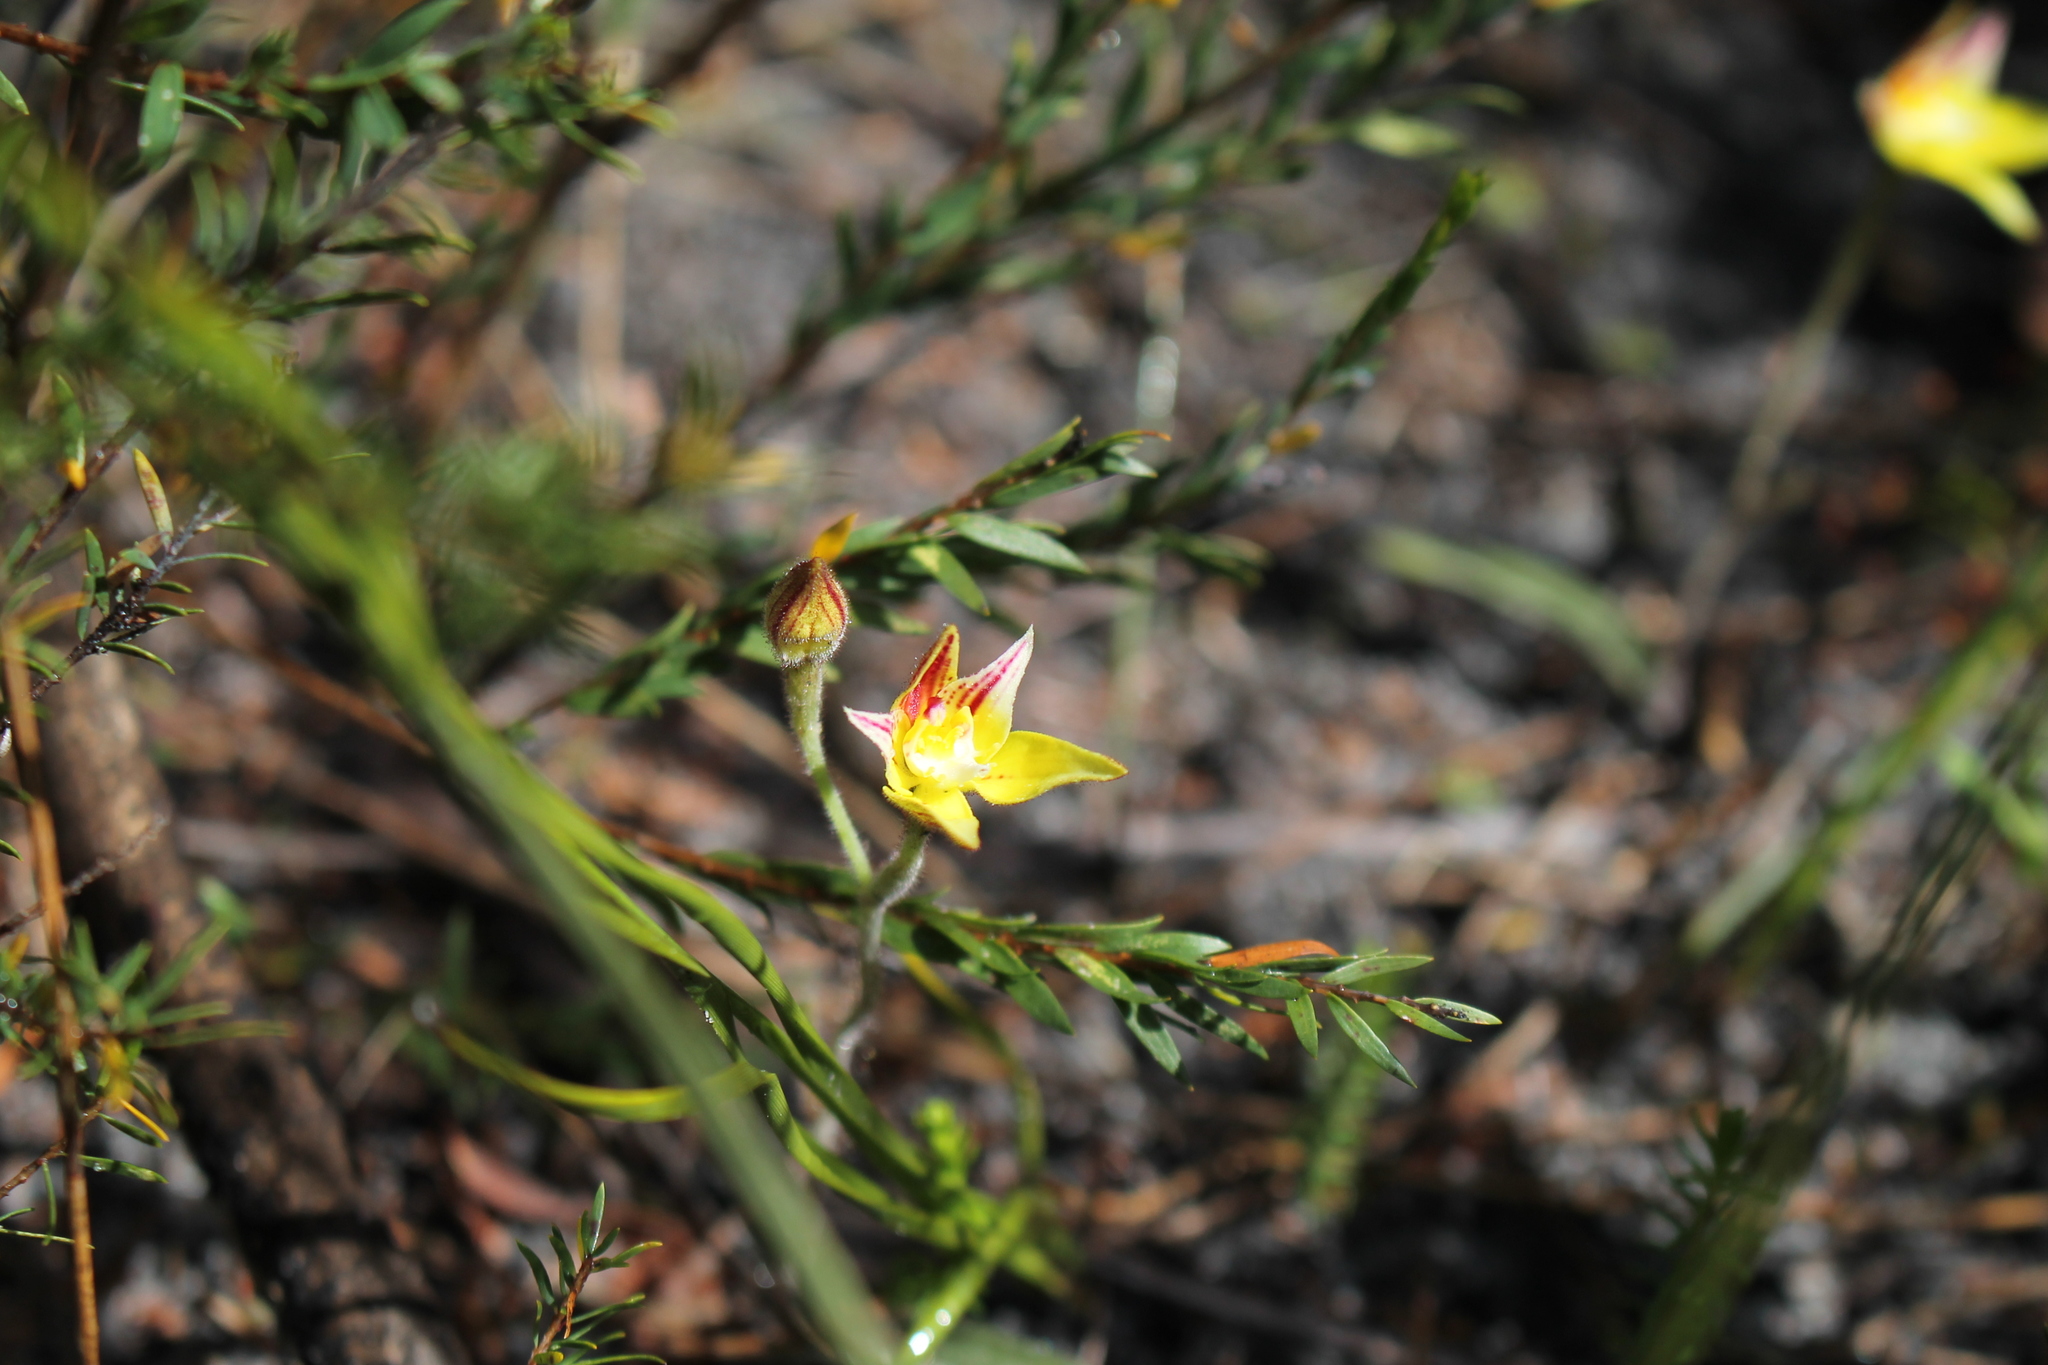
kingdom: Plantae
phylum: Tracheophyta
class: Liliopsida
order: Asparagales
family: Orchidaceae
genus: Caladenia
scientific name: Caladenia flava
